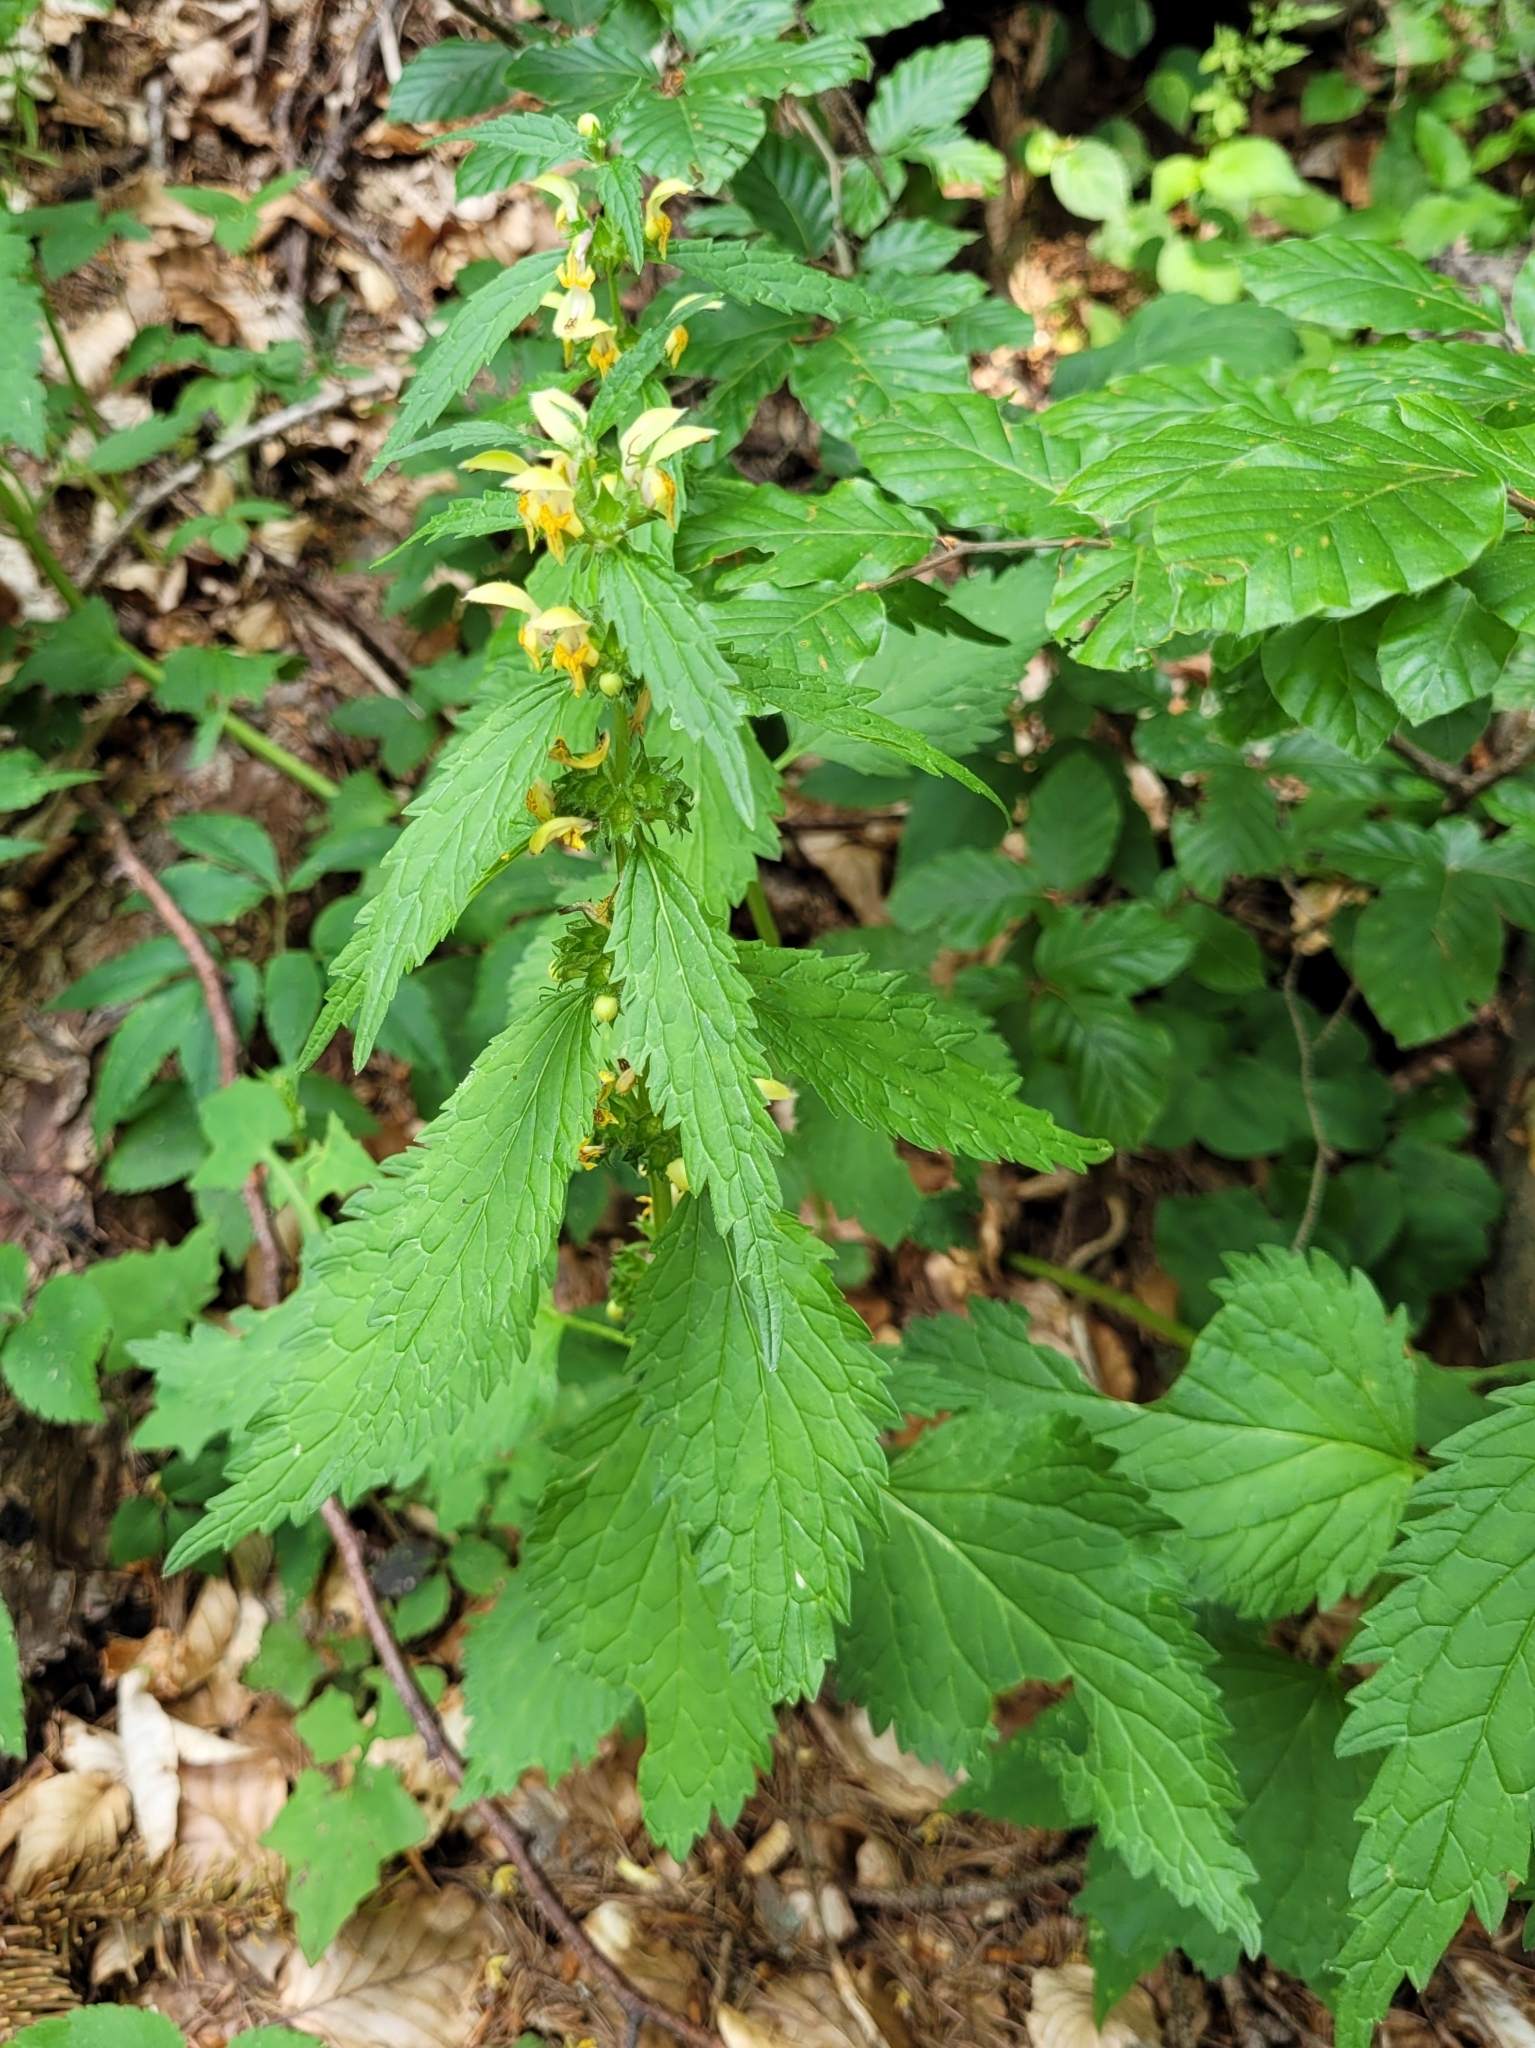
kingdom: Plantae
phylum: Tracheophyta
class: Magnoliopsida
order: Lamiales
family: Lamiaceae
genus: Lamium
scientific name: Lamium galeobdolon
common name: Yellow archangel
